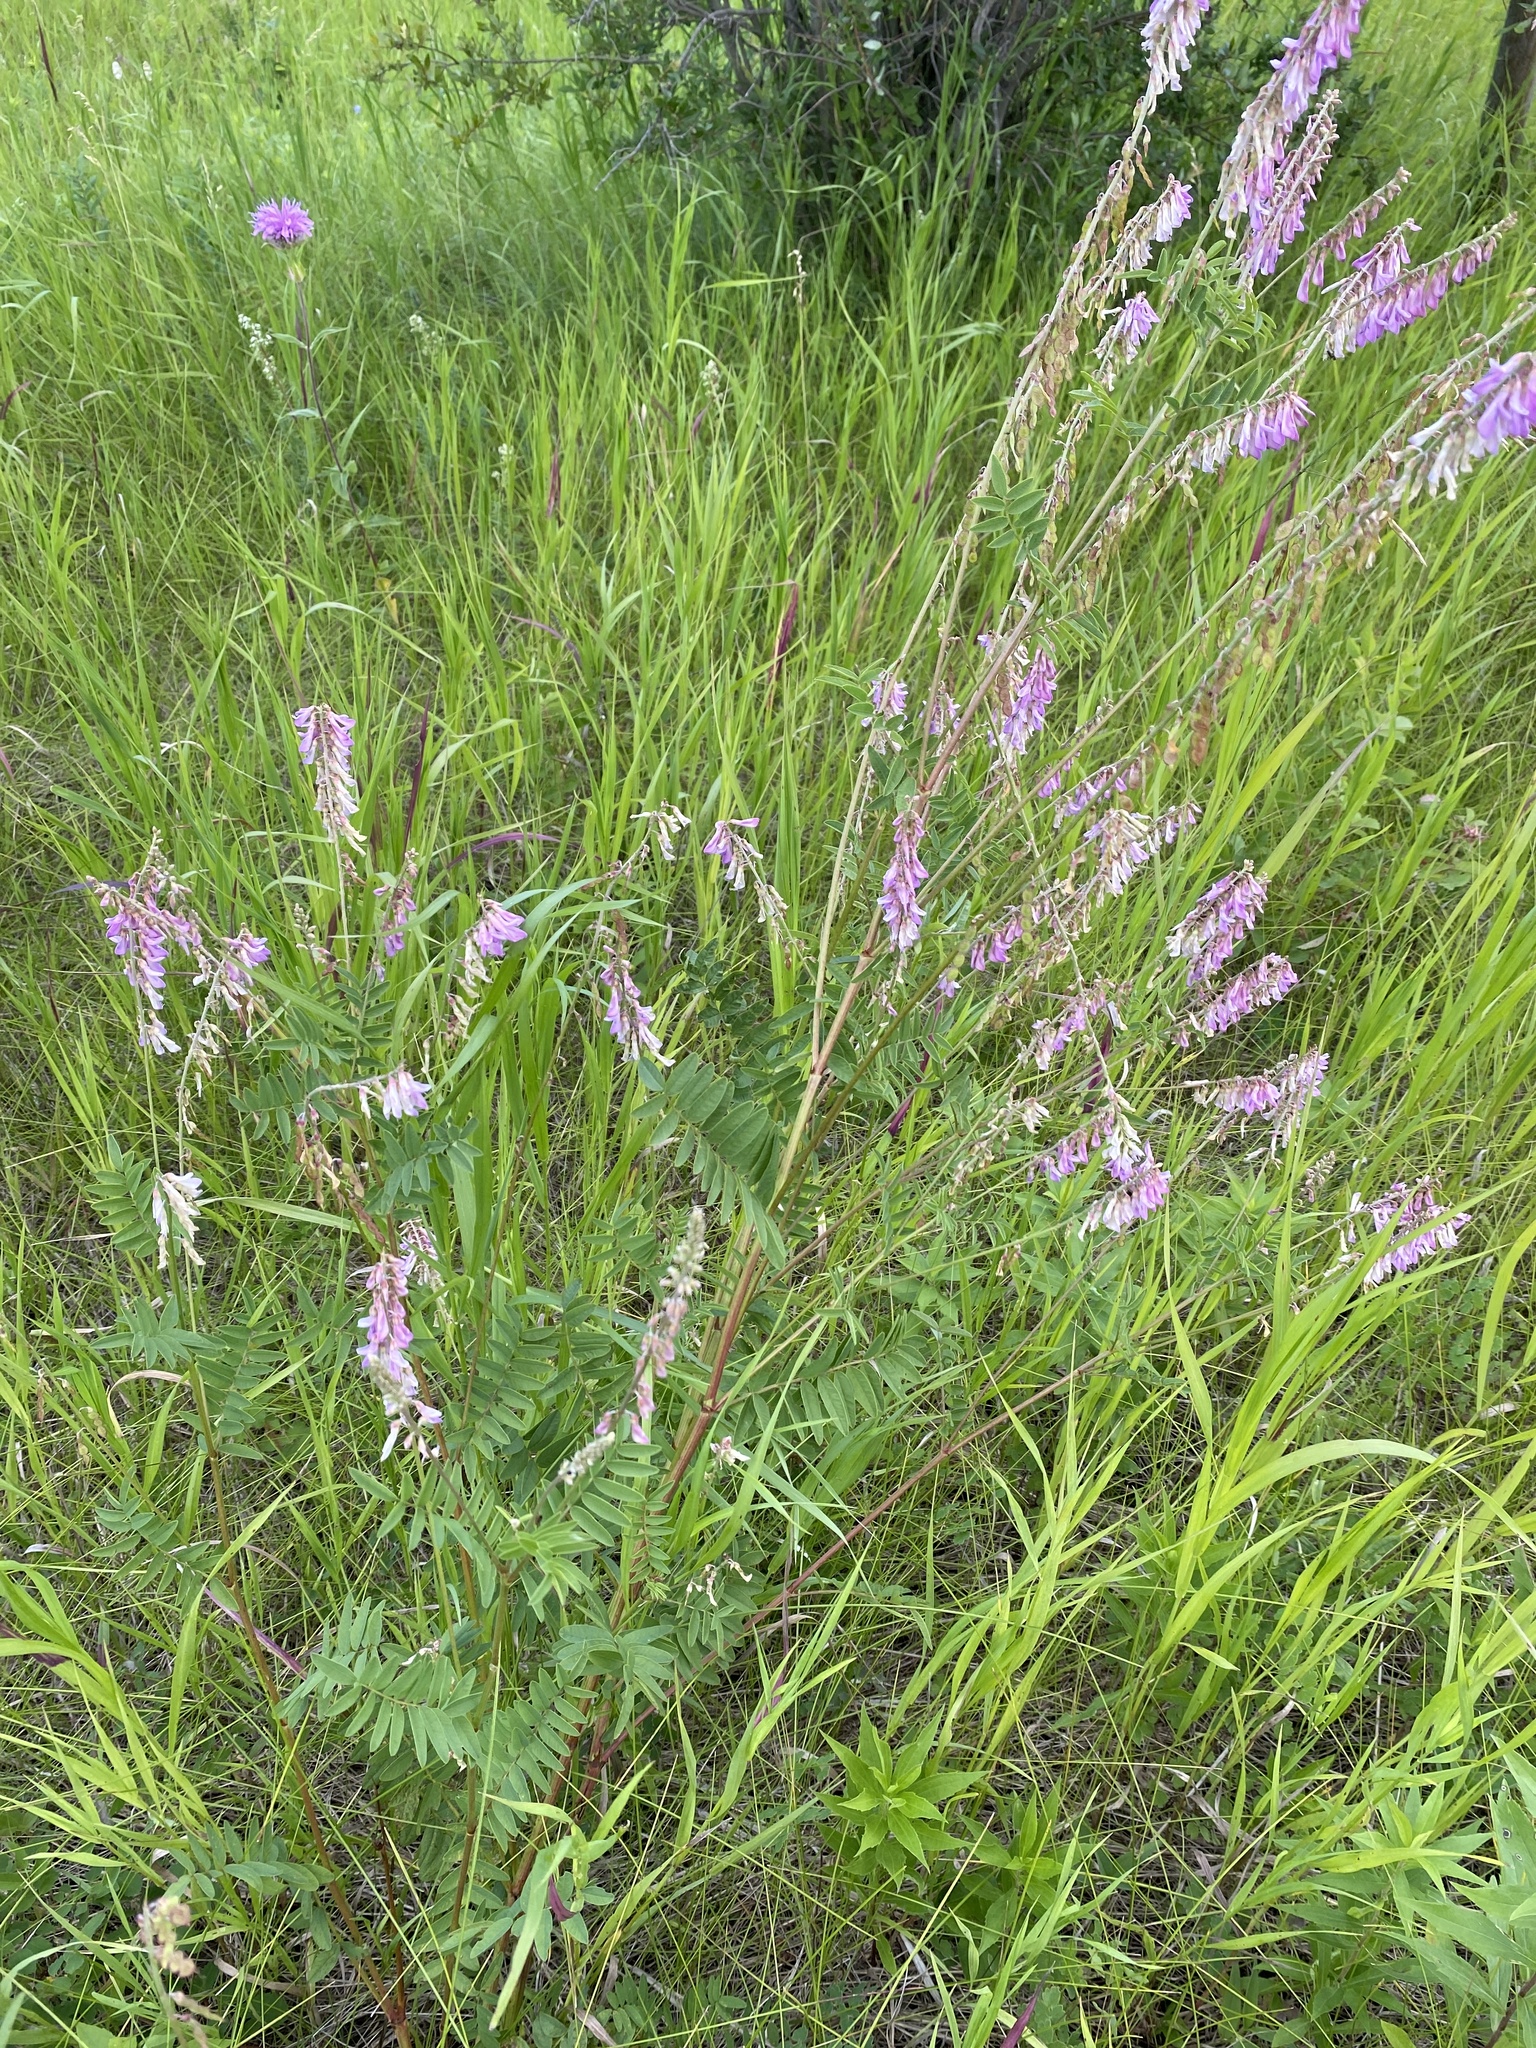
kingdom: Plantae
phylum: Tracheophyta
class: Magnoliopsida
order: Fabales
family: Fabaceae
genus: Hedysarum
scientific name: Hedysarum
